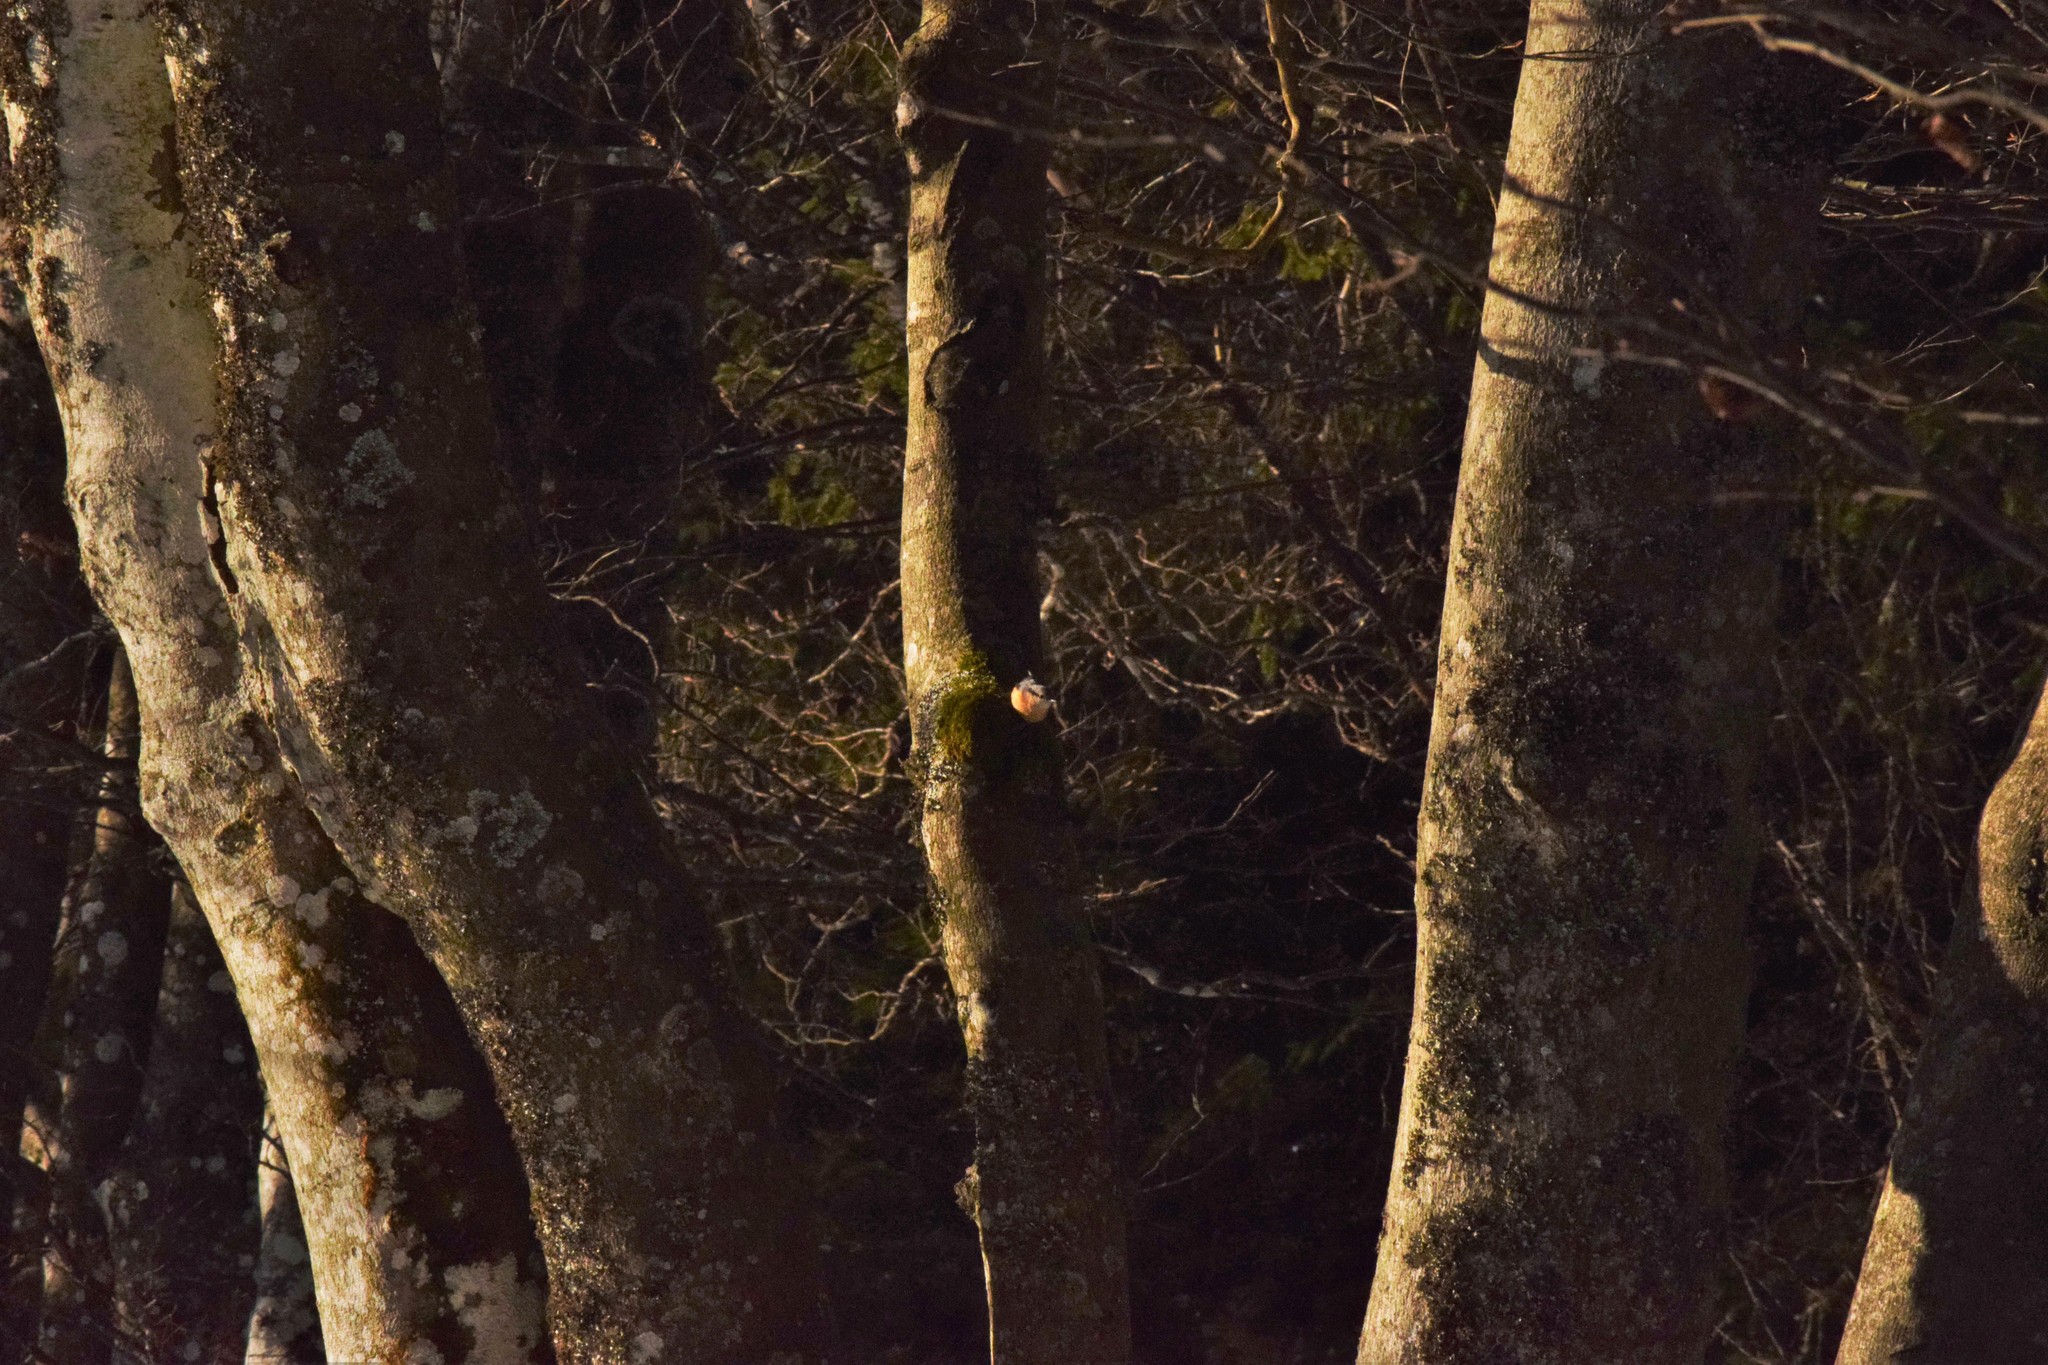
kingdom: Animalia
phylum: Chordata
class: Aves
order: Passeriformes
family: Sittidae
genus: Sitta
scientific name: Sitta europaea
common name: Eurasian nuthatch
